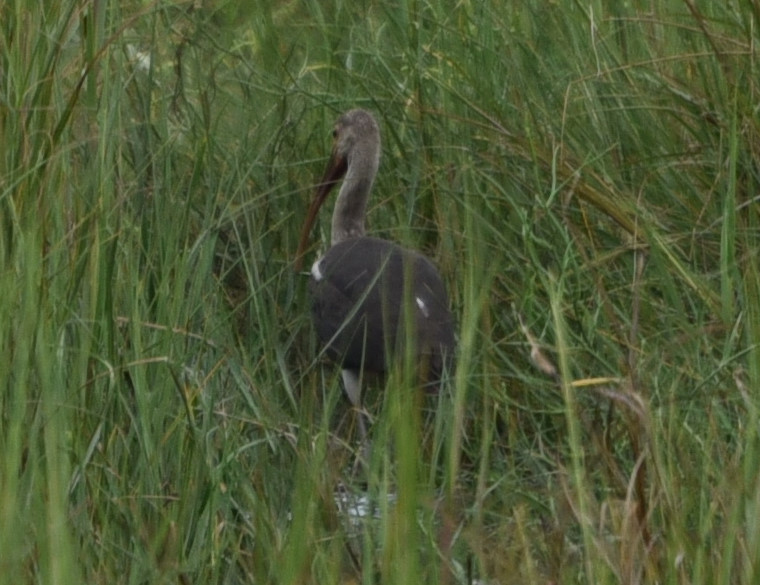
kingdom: Animalia
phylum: Chordata
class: Aves
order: Pelecaniformes
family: Threskiornithidae
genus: Eudocimus
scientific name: Eudocimus albus
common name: White ibis
